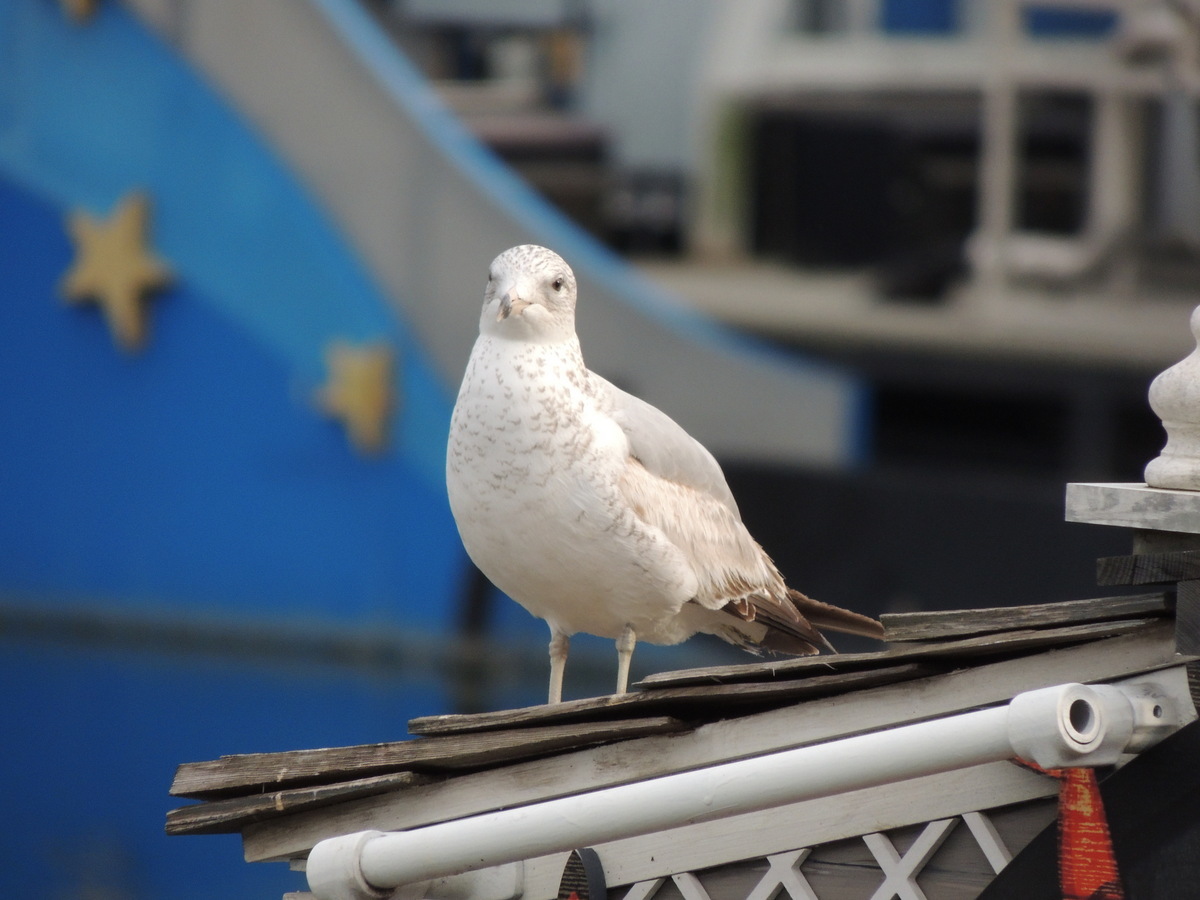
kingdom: Animalia
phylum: Chordata
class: Aves
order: Charadriiformes
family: Laridae
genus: Larus
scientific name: Larus delawarensis
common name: Ring-billed gull
